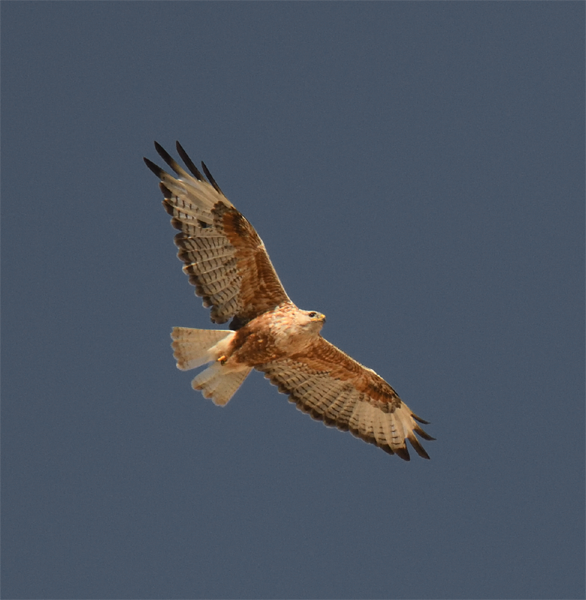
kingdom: Animalia
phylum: Chordata
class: Aves
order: Accipitriformes
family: Accipitridae
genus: Buteo
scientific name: Buteo rufinus
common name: Long-legged buzzard
